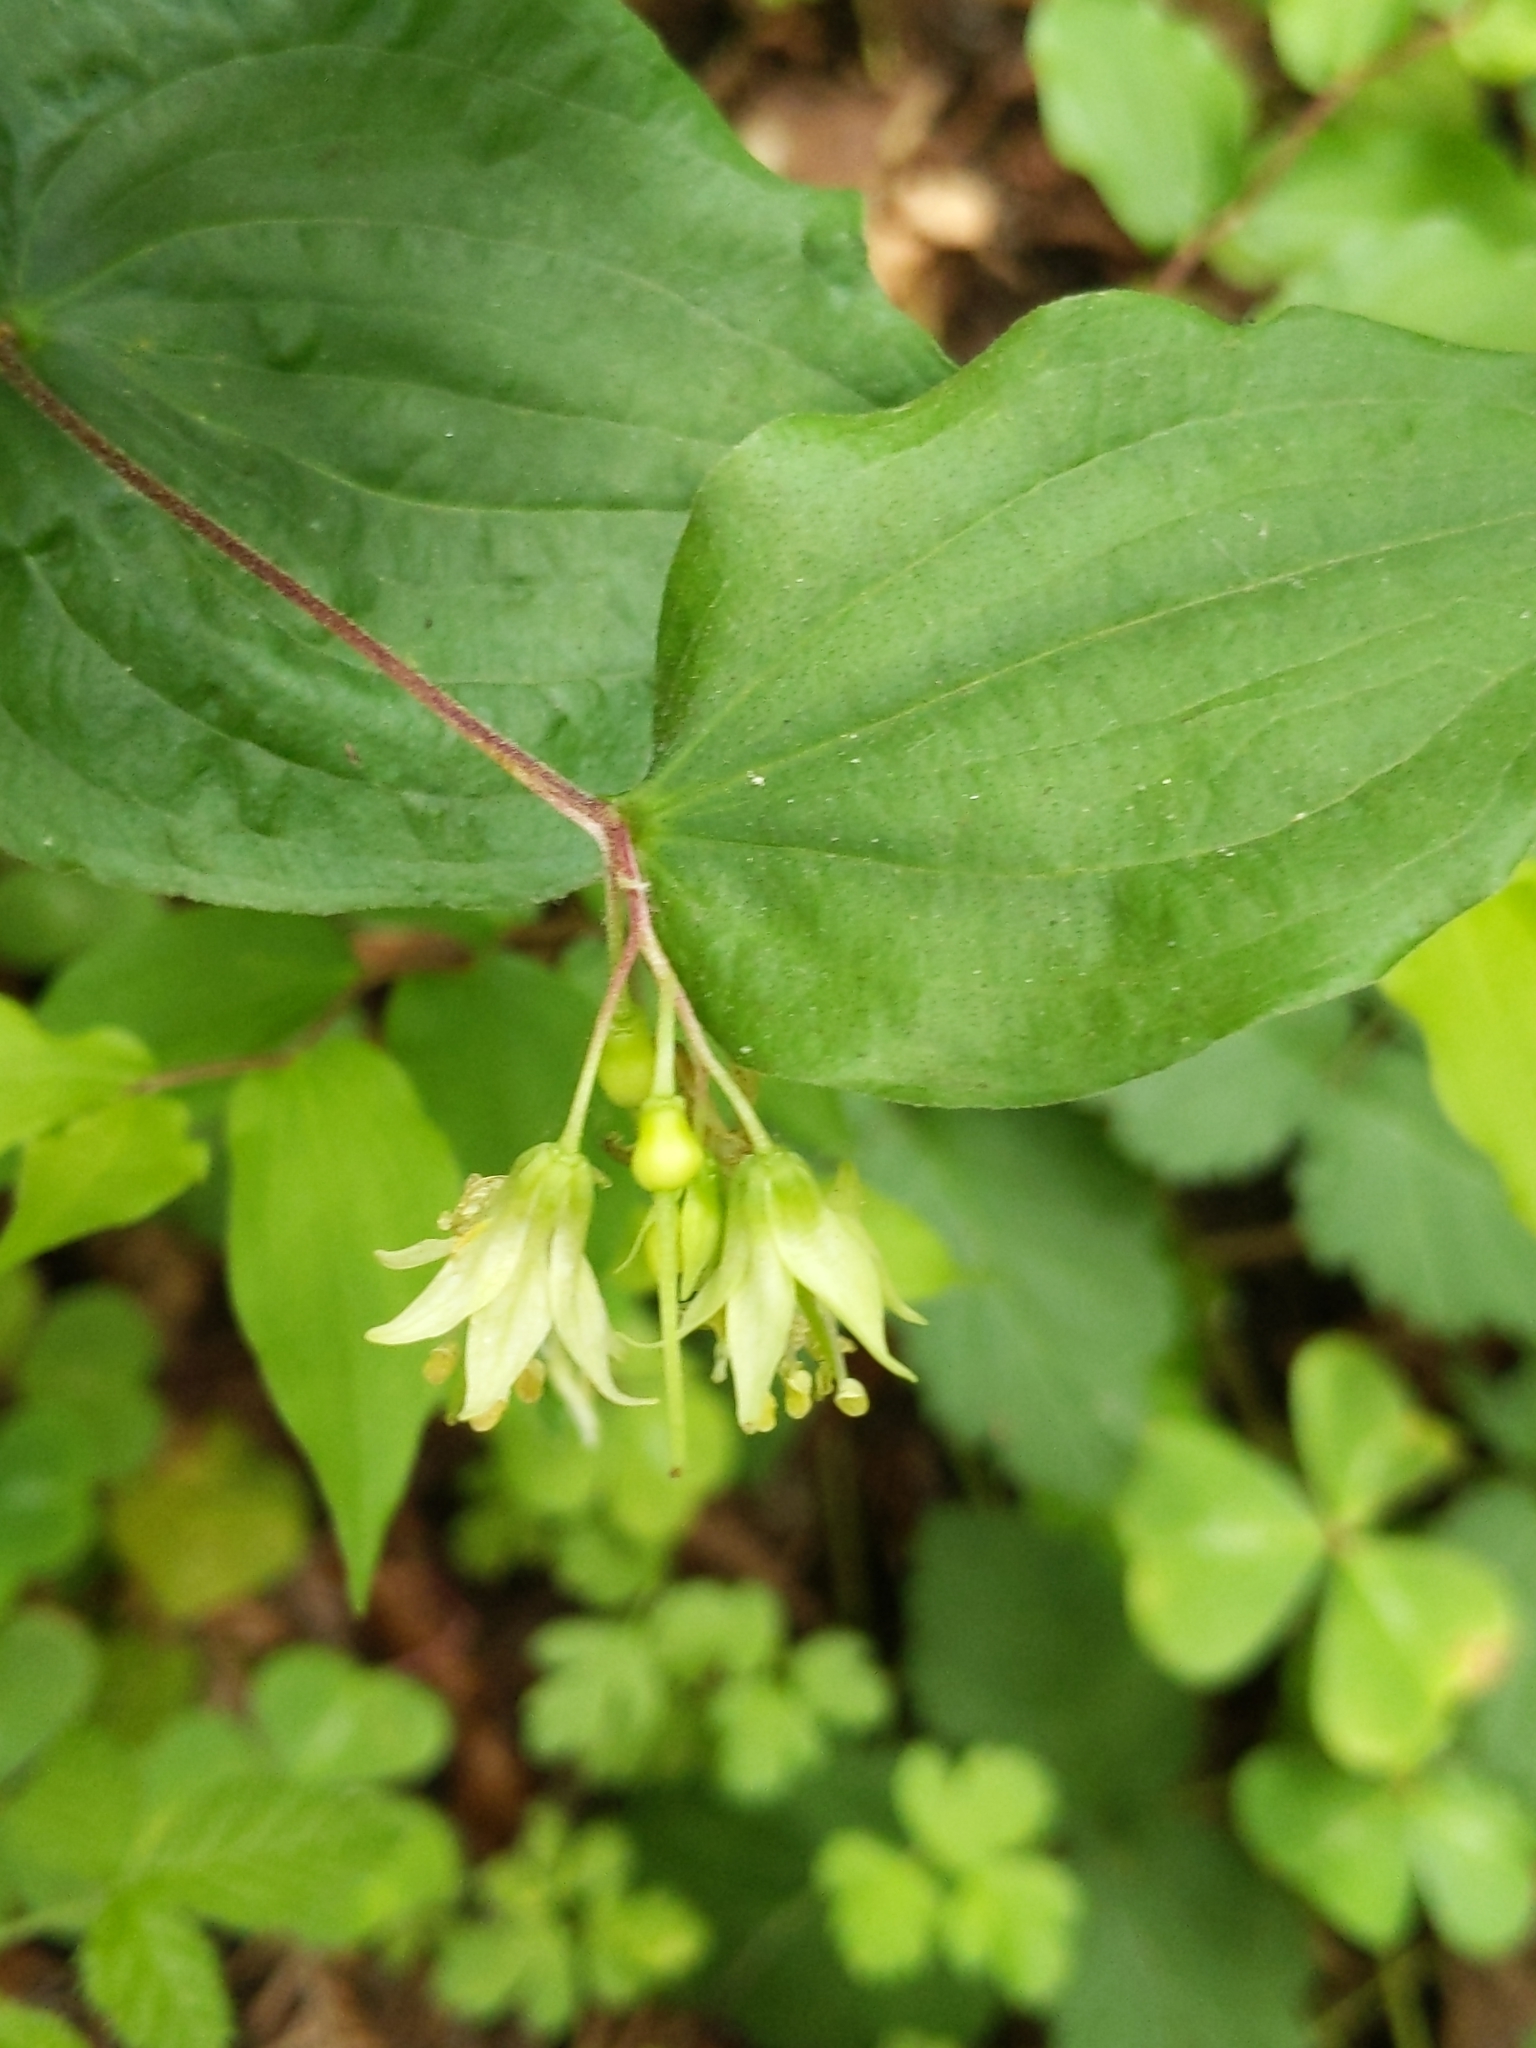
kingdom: Plantae
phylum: Tracheophyta
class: Liliopsida
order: Liliales
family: Liliaceae
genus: Prosartes
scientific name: Prosartes hookeri
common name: Fairy-bells
